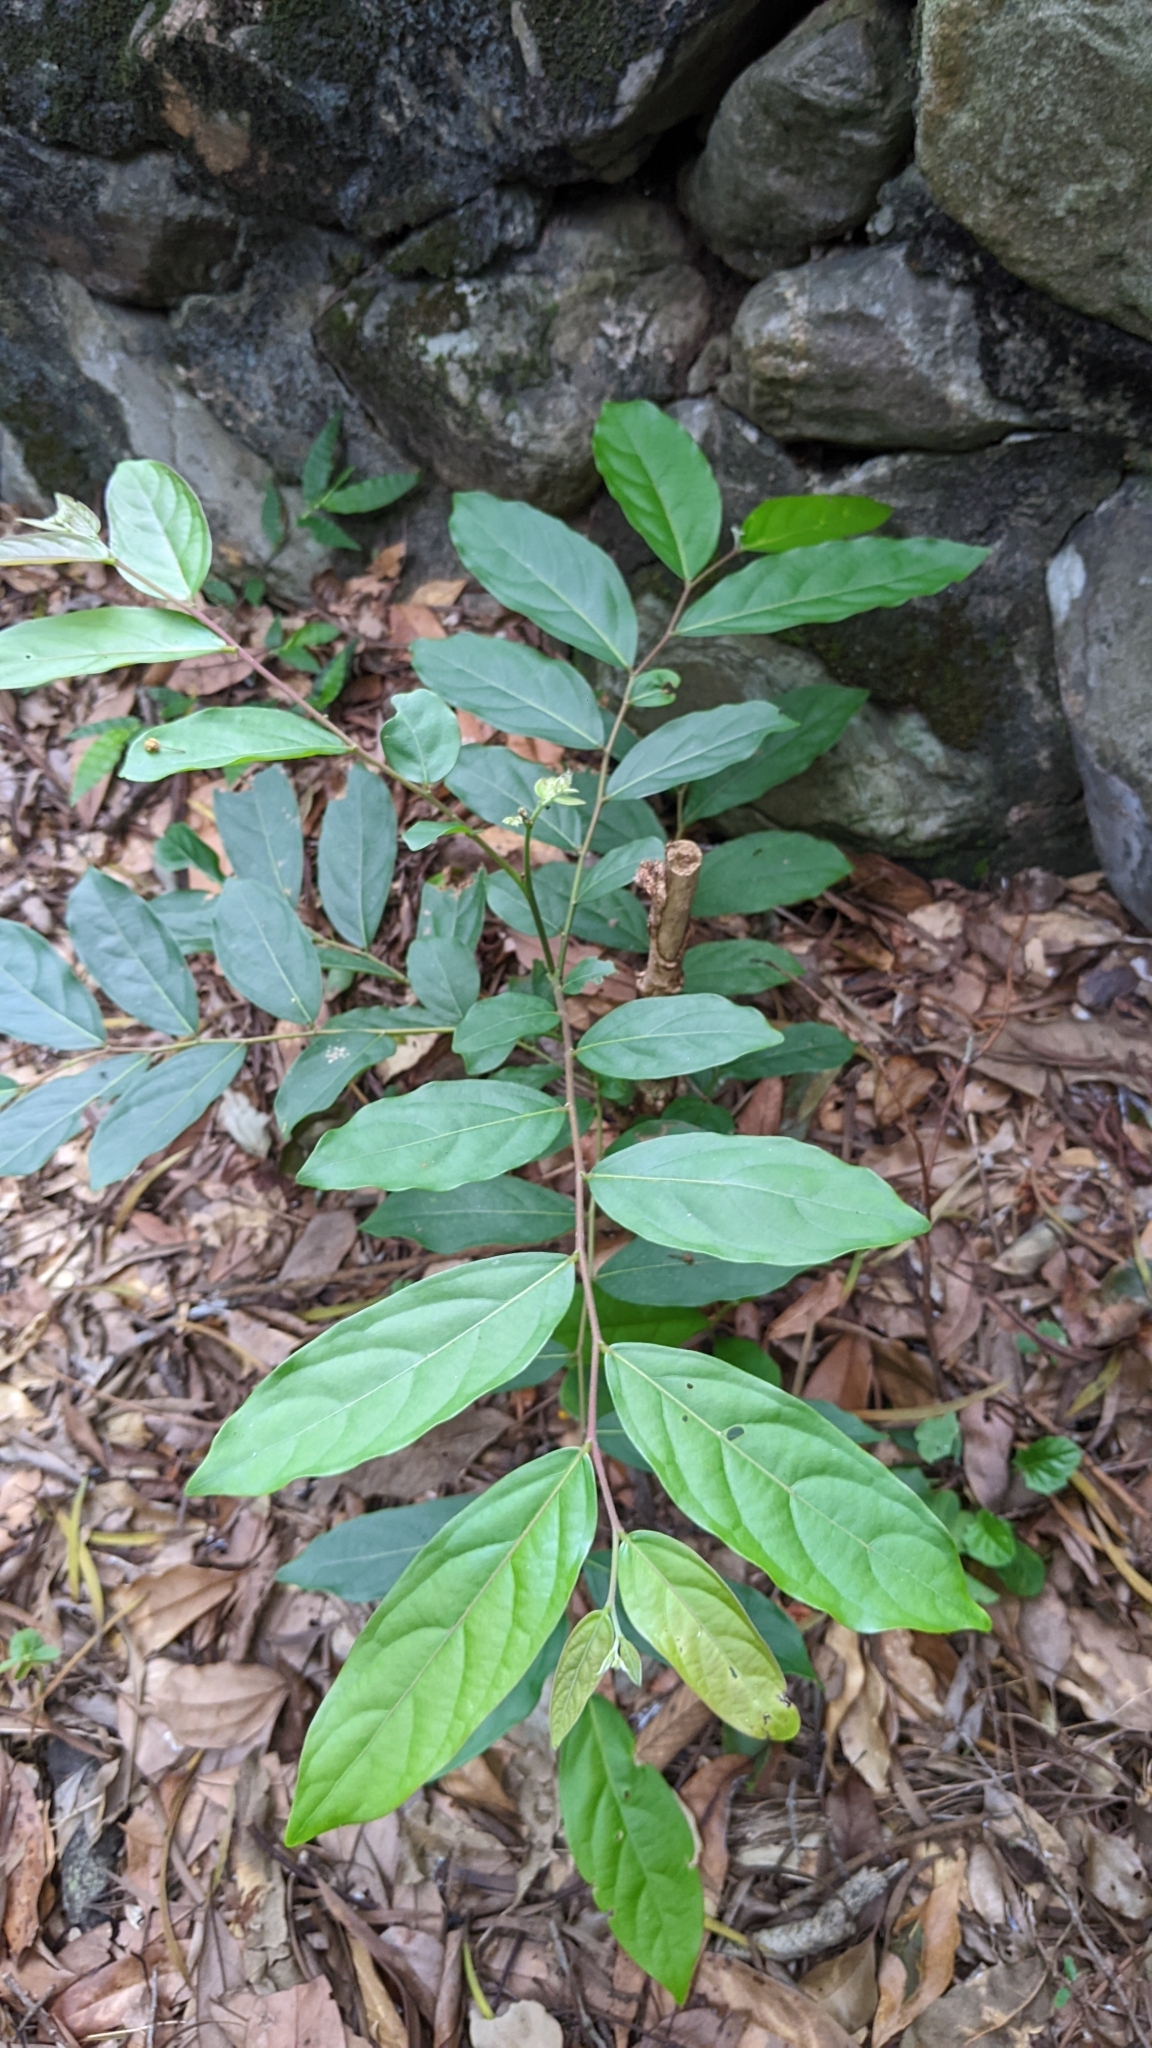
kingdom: Plantae
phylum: Tracheophyta
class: Magnoliopsida
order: Malpighiales
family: Phyllanthaceae
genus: Glochidion
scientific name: Glochidion philippicum
